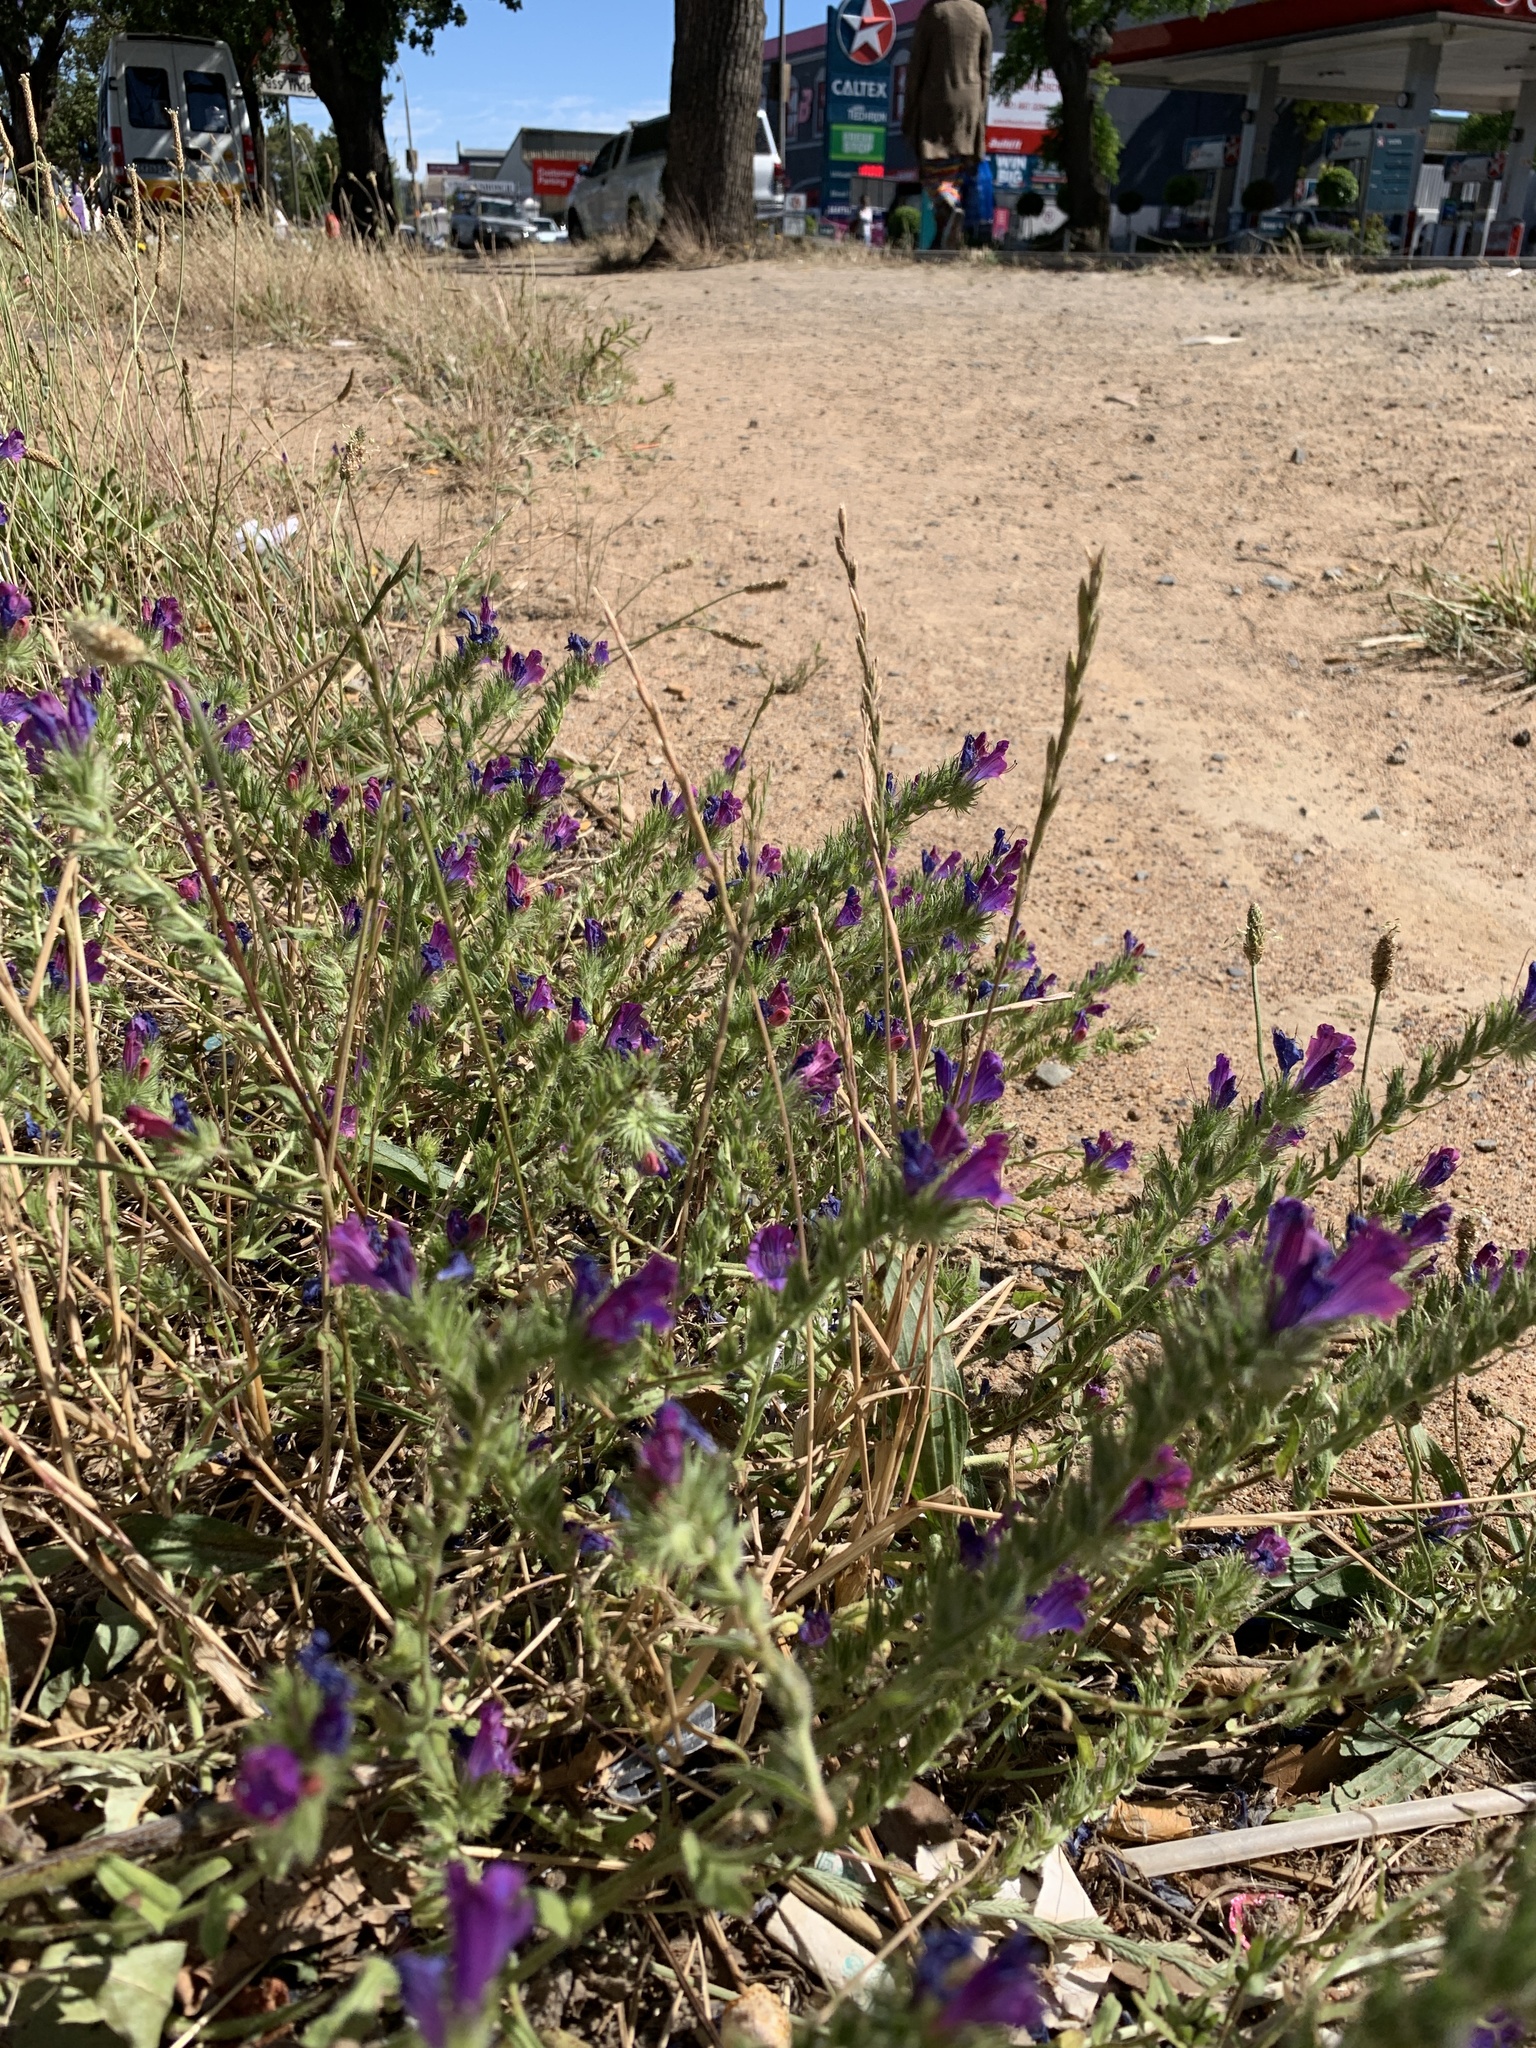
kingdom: Plantae
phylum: Tracheophyta
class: Magnoliopsida
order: Boraginales
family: Boraginaceae
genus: Echium
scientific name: Echium plantagineum
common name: Purple viper's-bugloss
